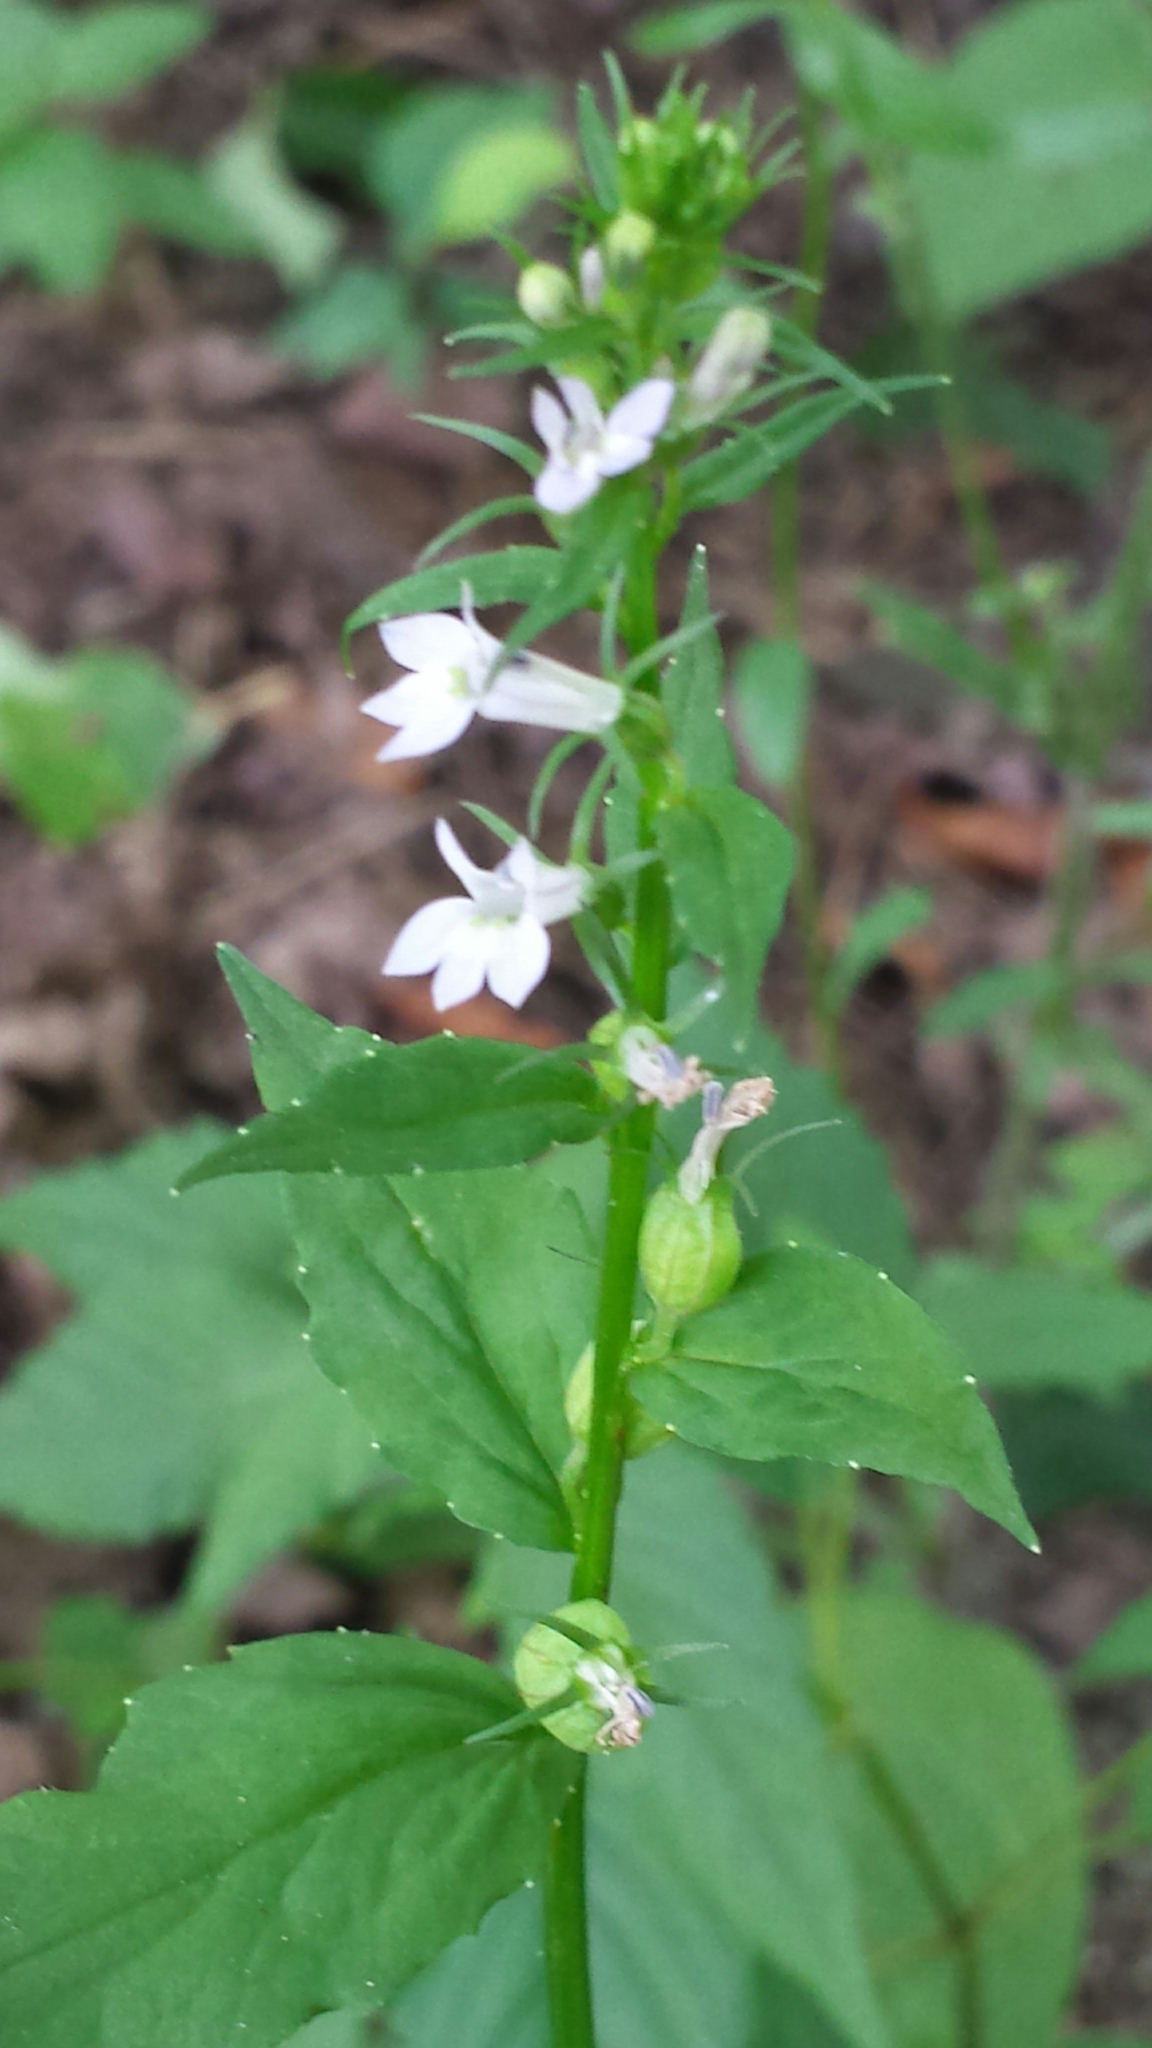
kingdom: Plantae
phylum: Tracheophyta
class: Magnoliopsida
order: Asterales
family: Campanulaceae
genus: Lobelia
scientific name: Lobelia inflata
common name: Indian tobacco
